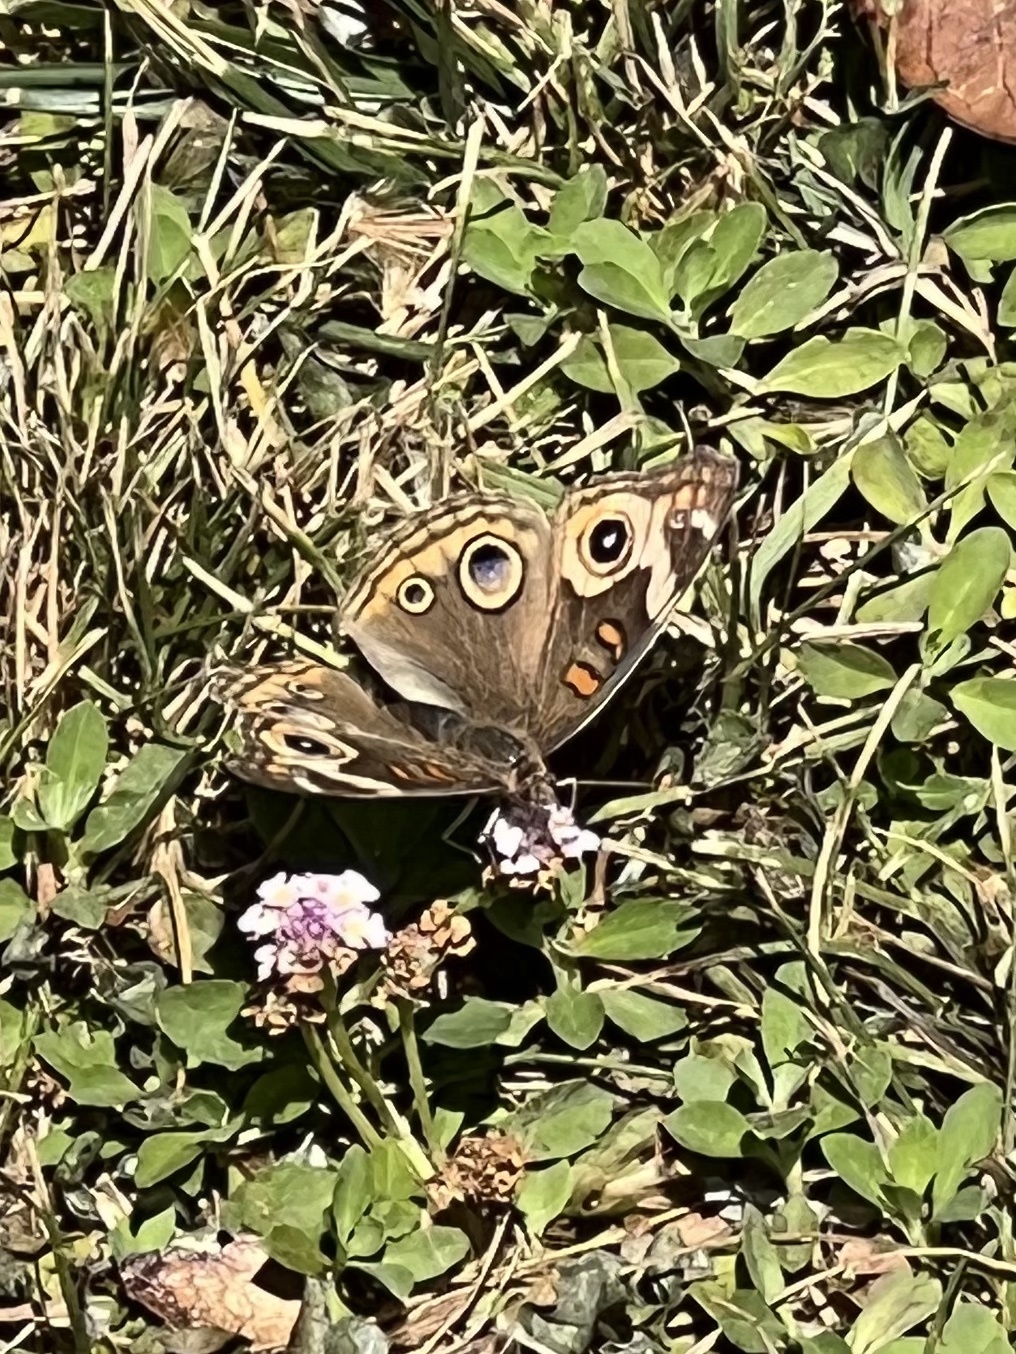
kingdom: Animalia
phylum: Arthropoda
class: Insecta
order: Lepidoptera
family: Nymphalidae
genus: Junonia
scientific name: Junonia grisea
